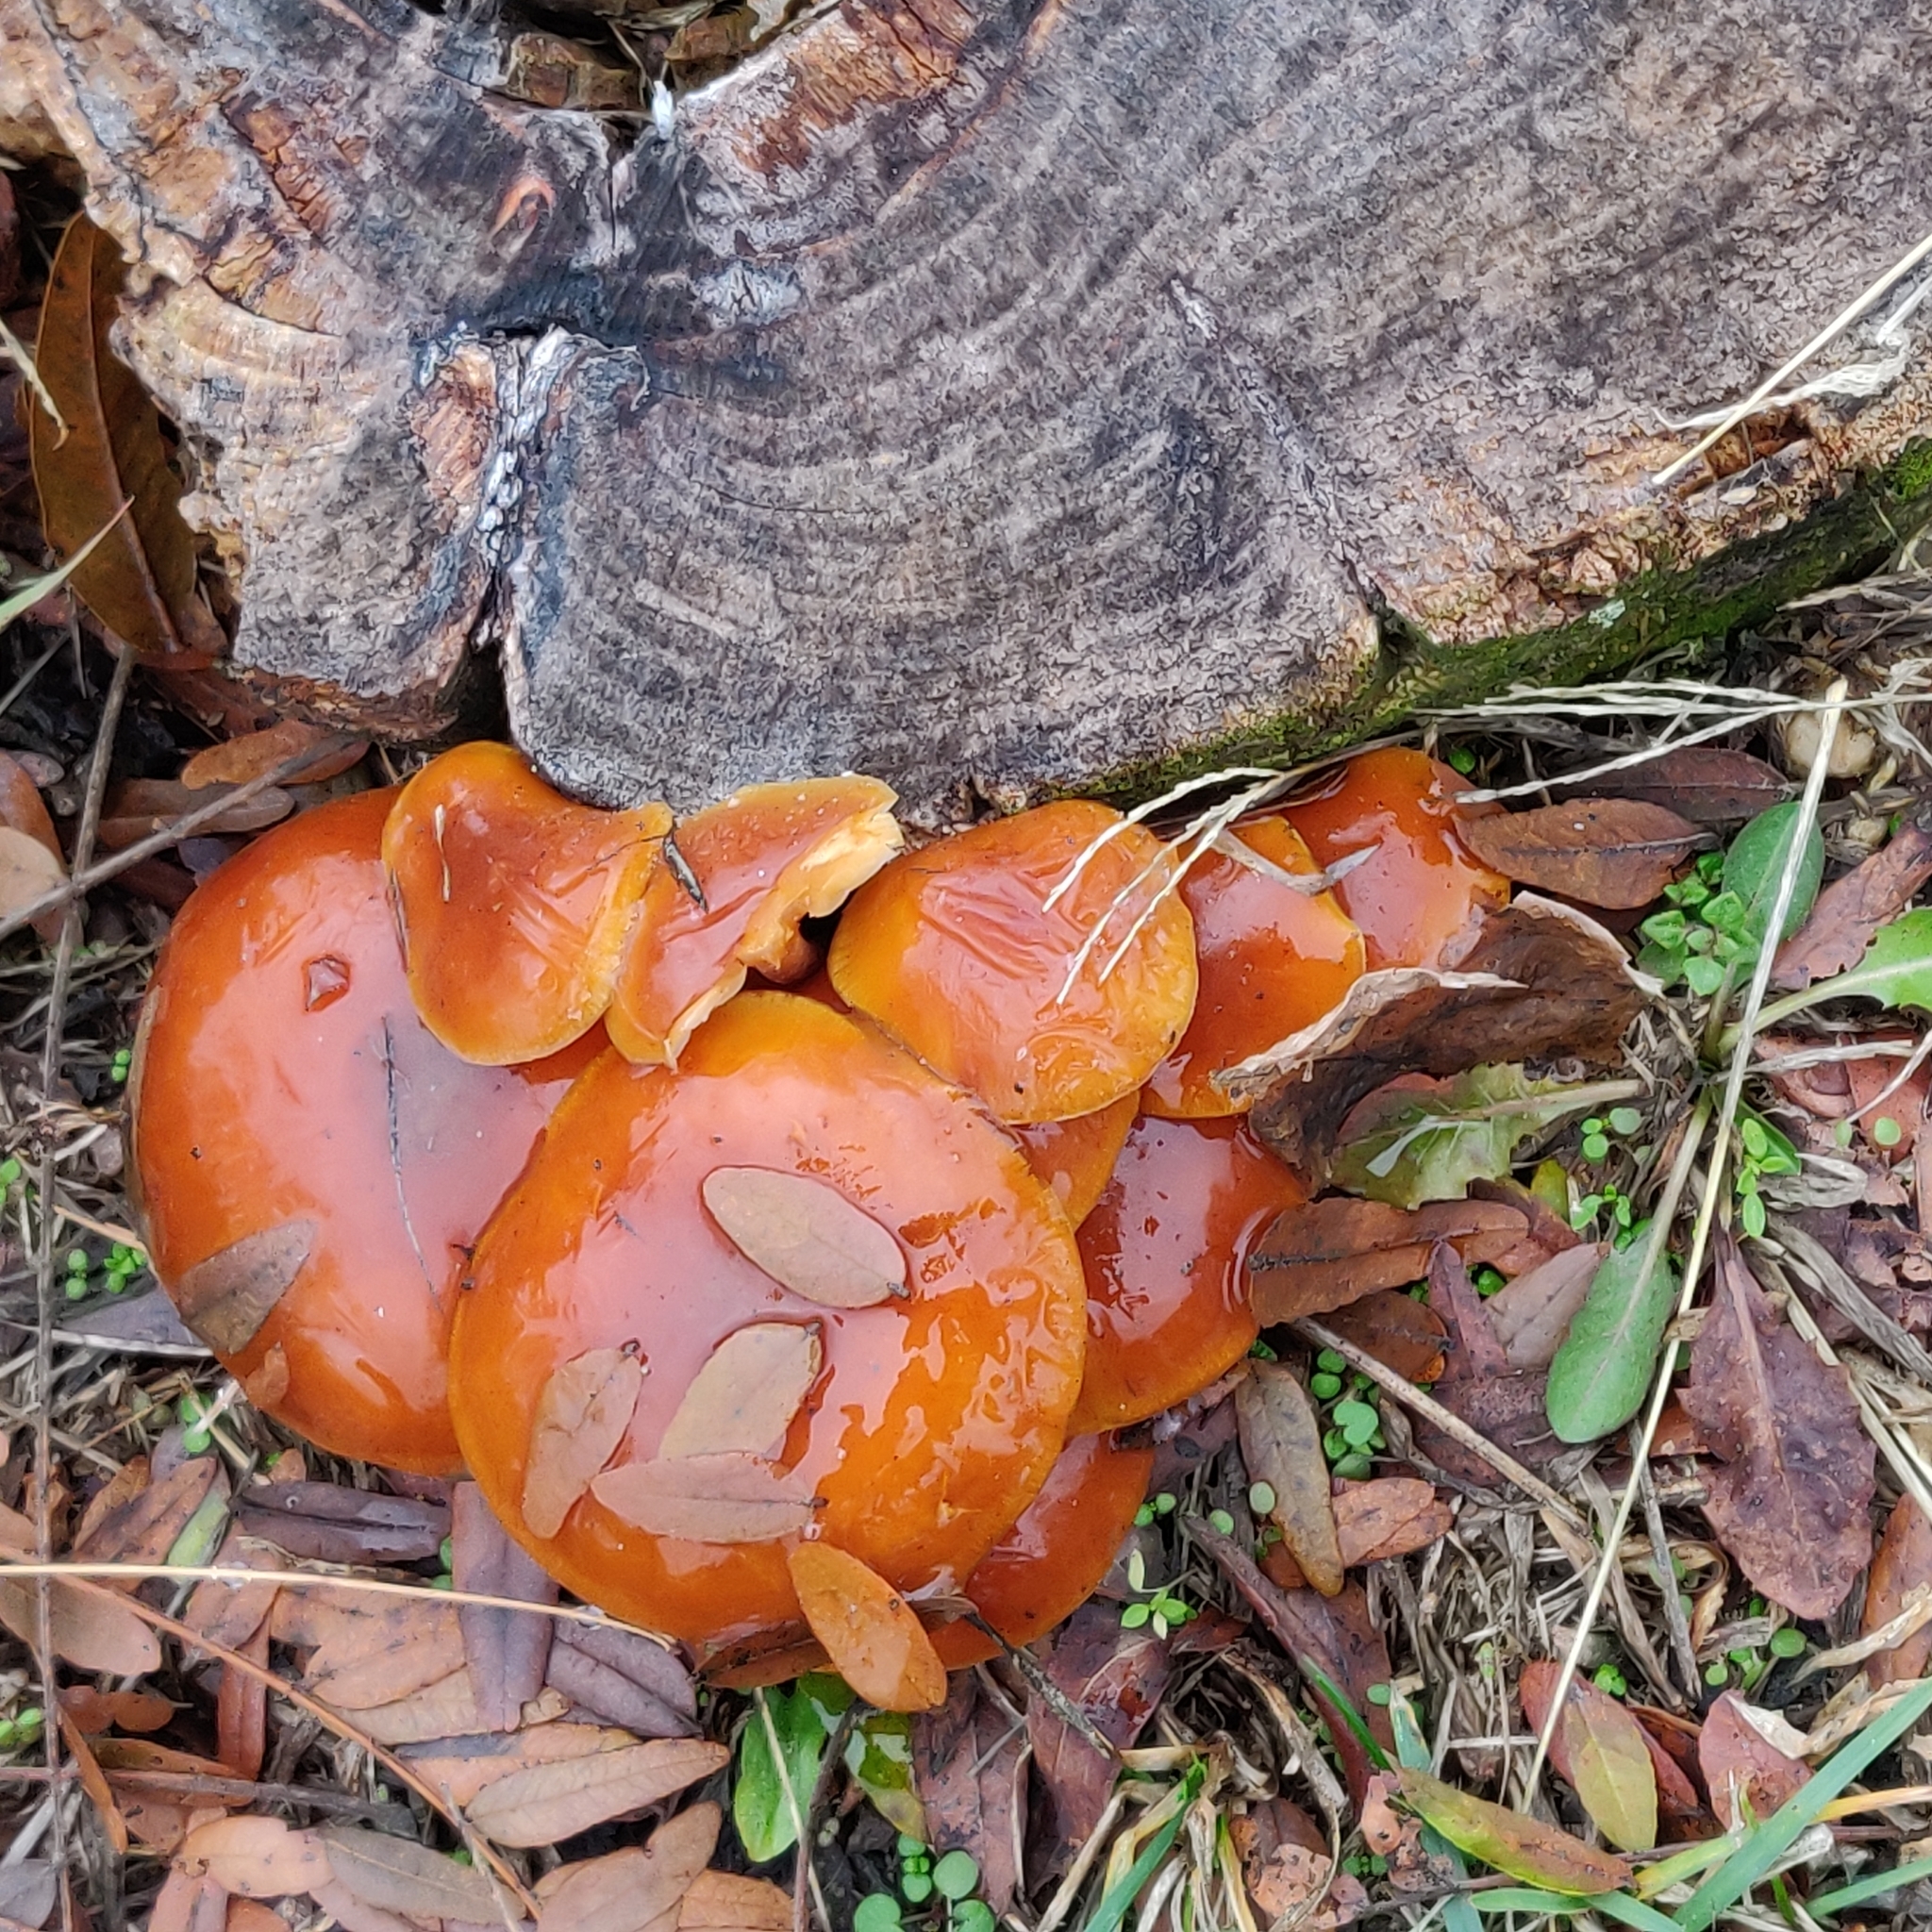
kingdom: Fungi
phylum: Basidiomycota
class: Agaricomycetes
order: Agaricales
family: Physalacriaceae
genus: Flammulina
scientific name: Flammulina velutipes
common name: Velvet shank
